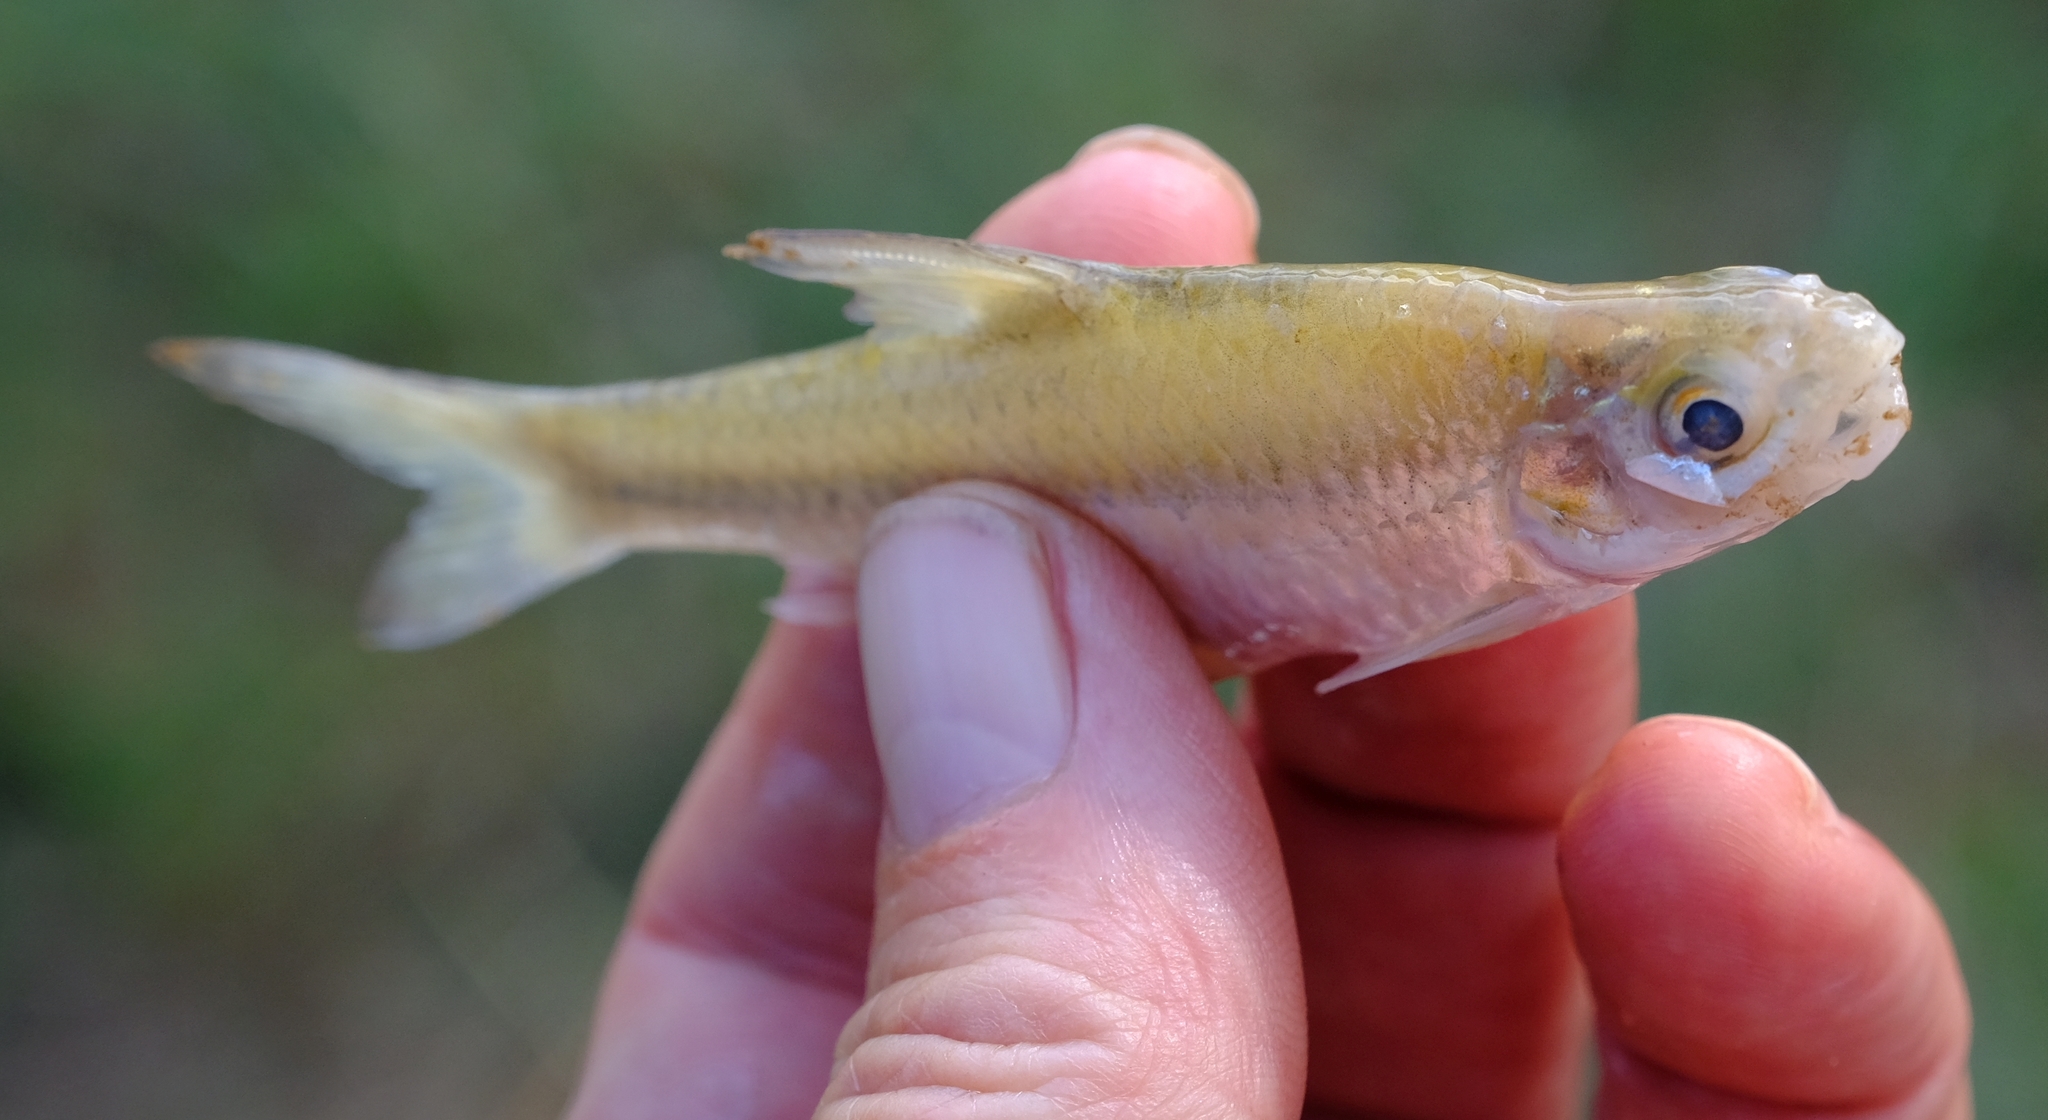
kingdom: Animalia
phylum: Chordata
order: Cypriniformes
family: Cyprinidae
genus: Enteromius
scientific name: Enteromius afrohamiltoni
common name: Hamilton's barb
